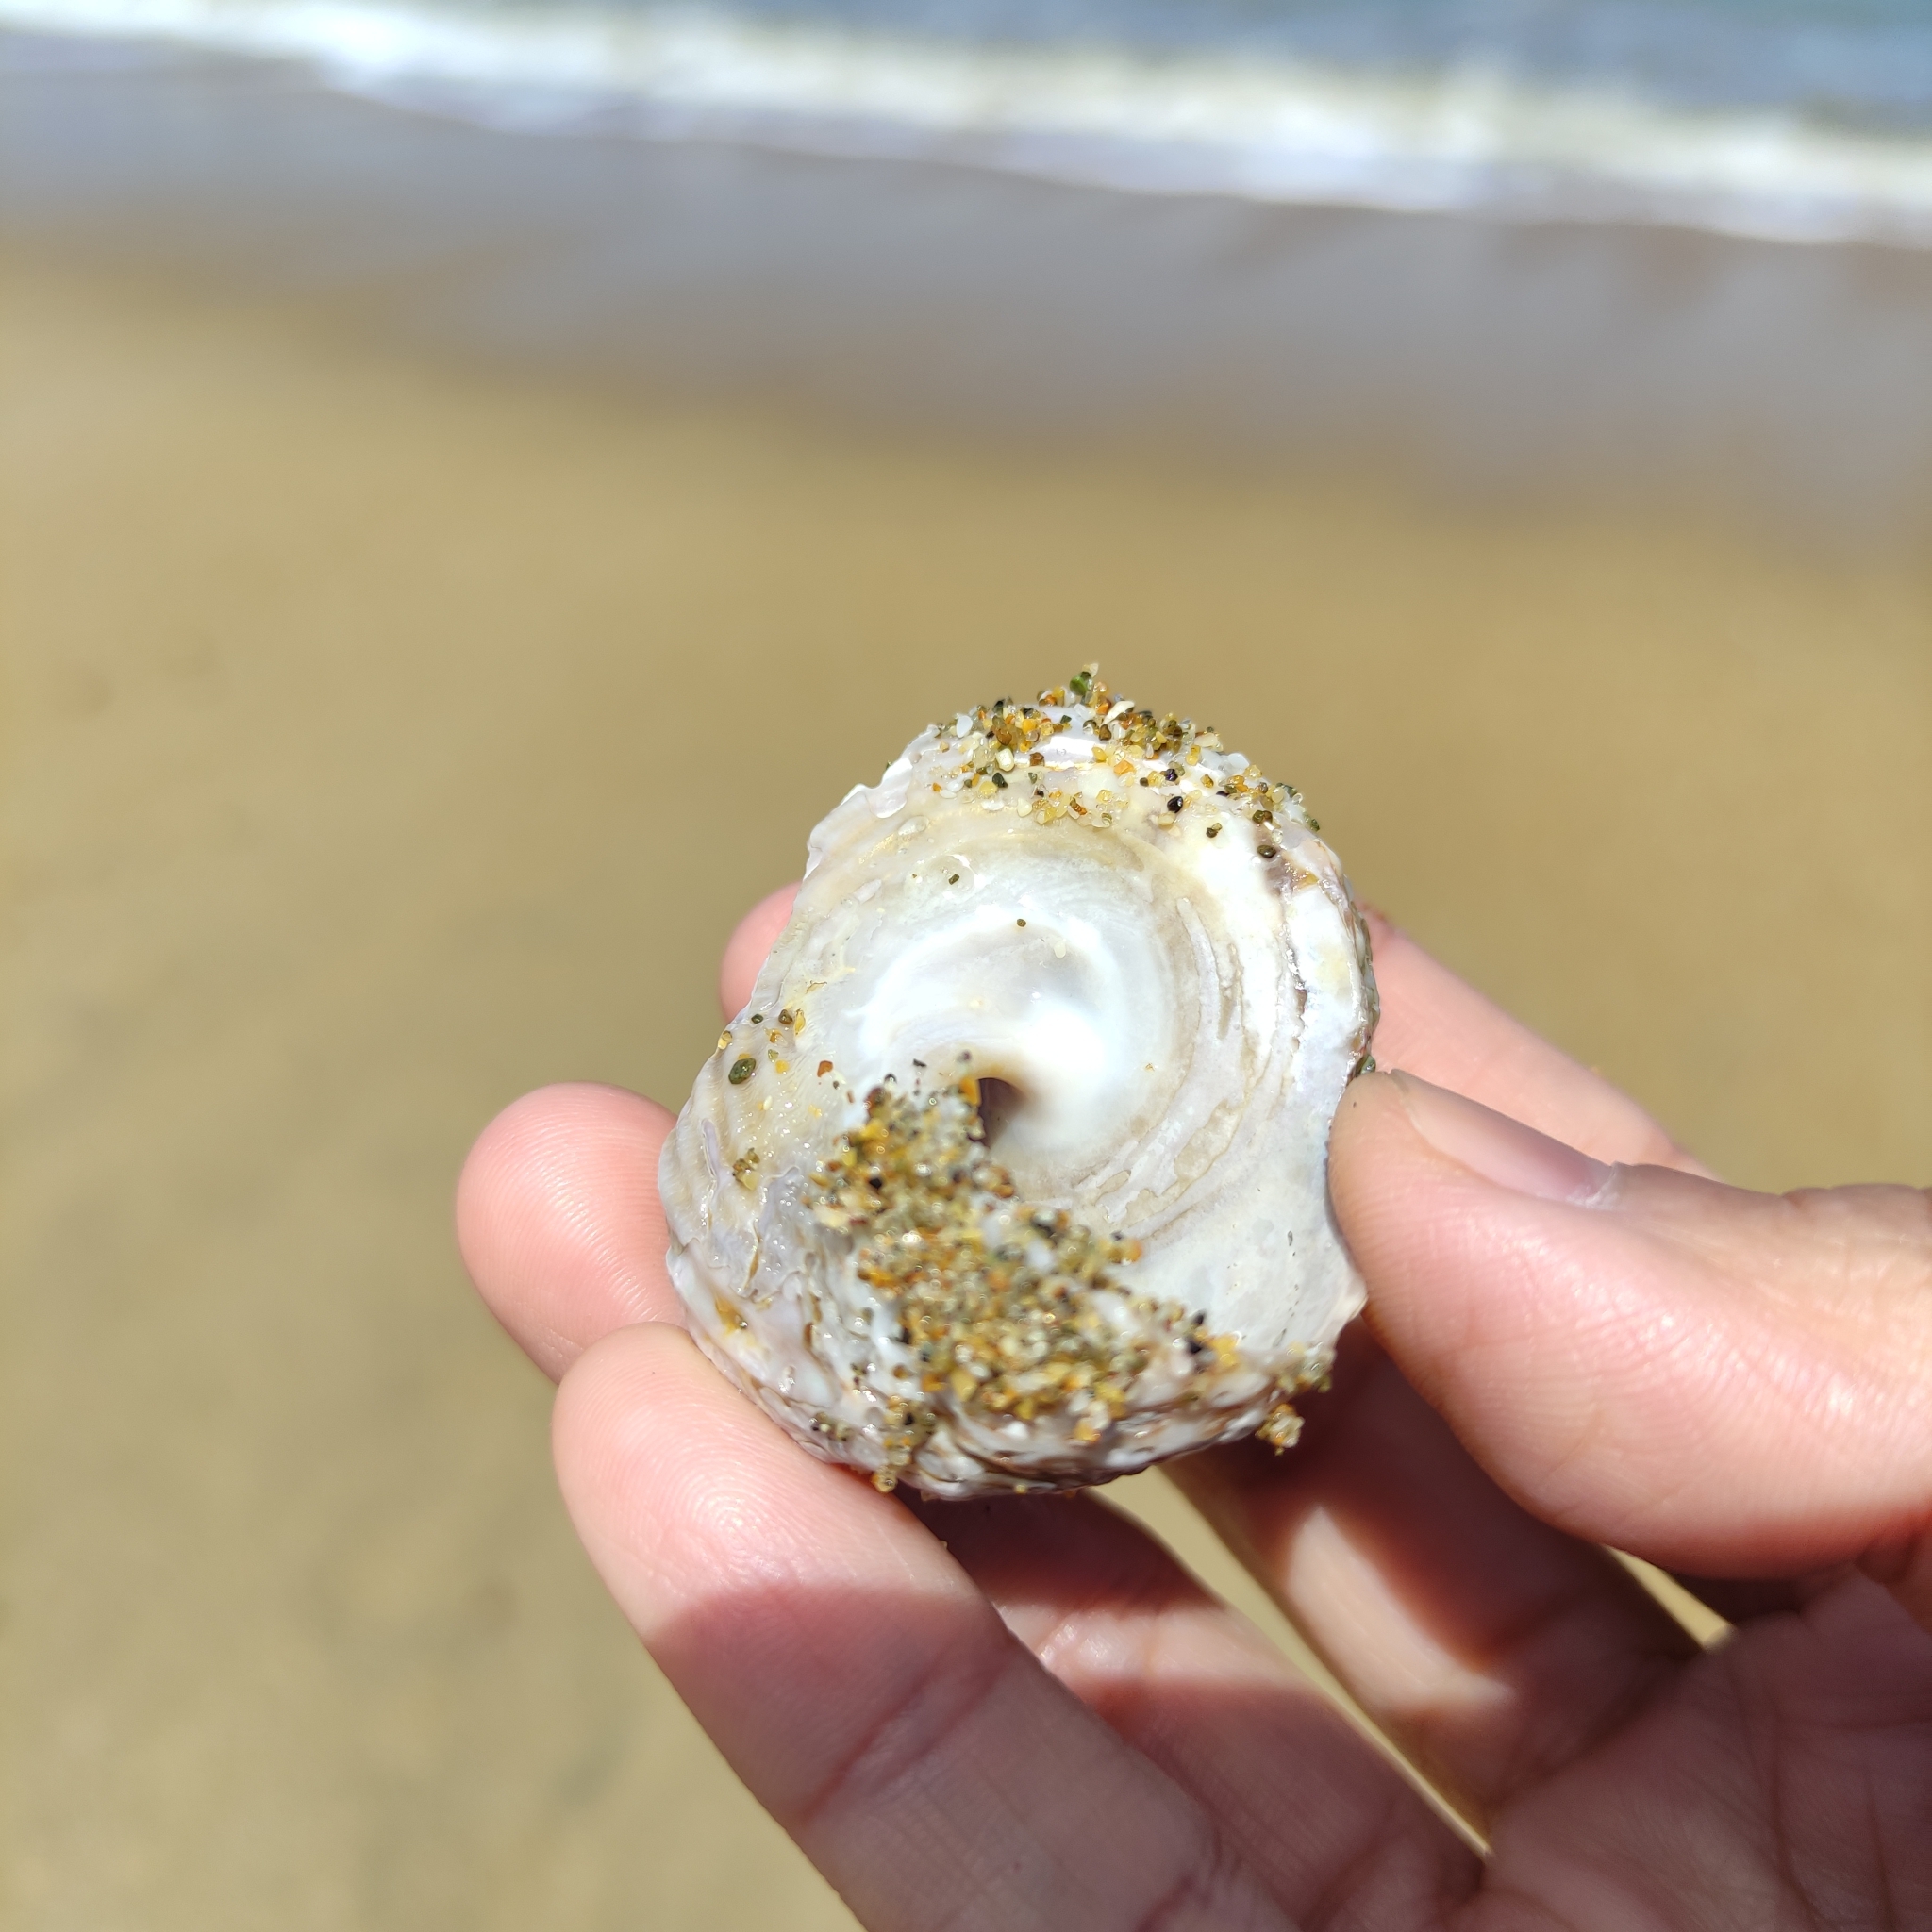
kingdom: Animalia
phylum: Mollusca
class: Gastropoda
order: Trochida
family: Turbinidae
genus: Cookia
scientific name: Cookia sulcata
